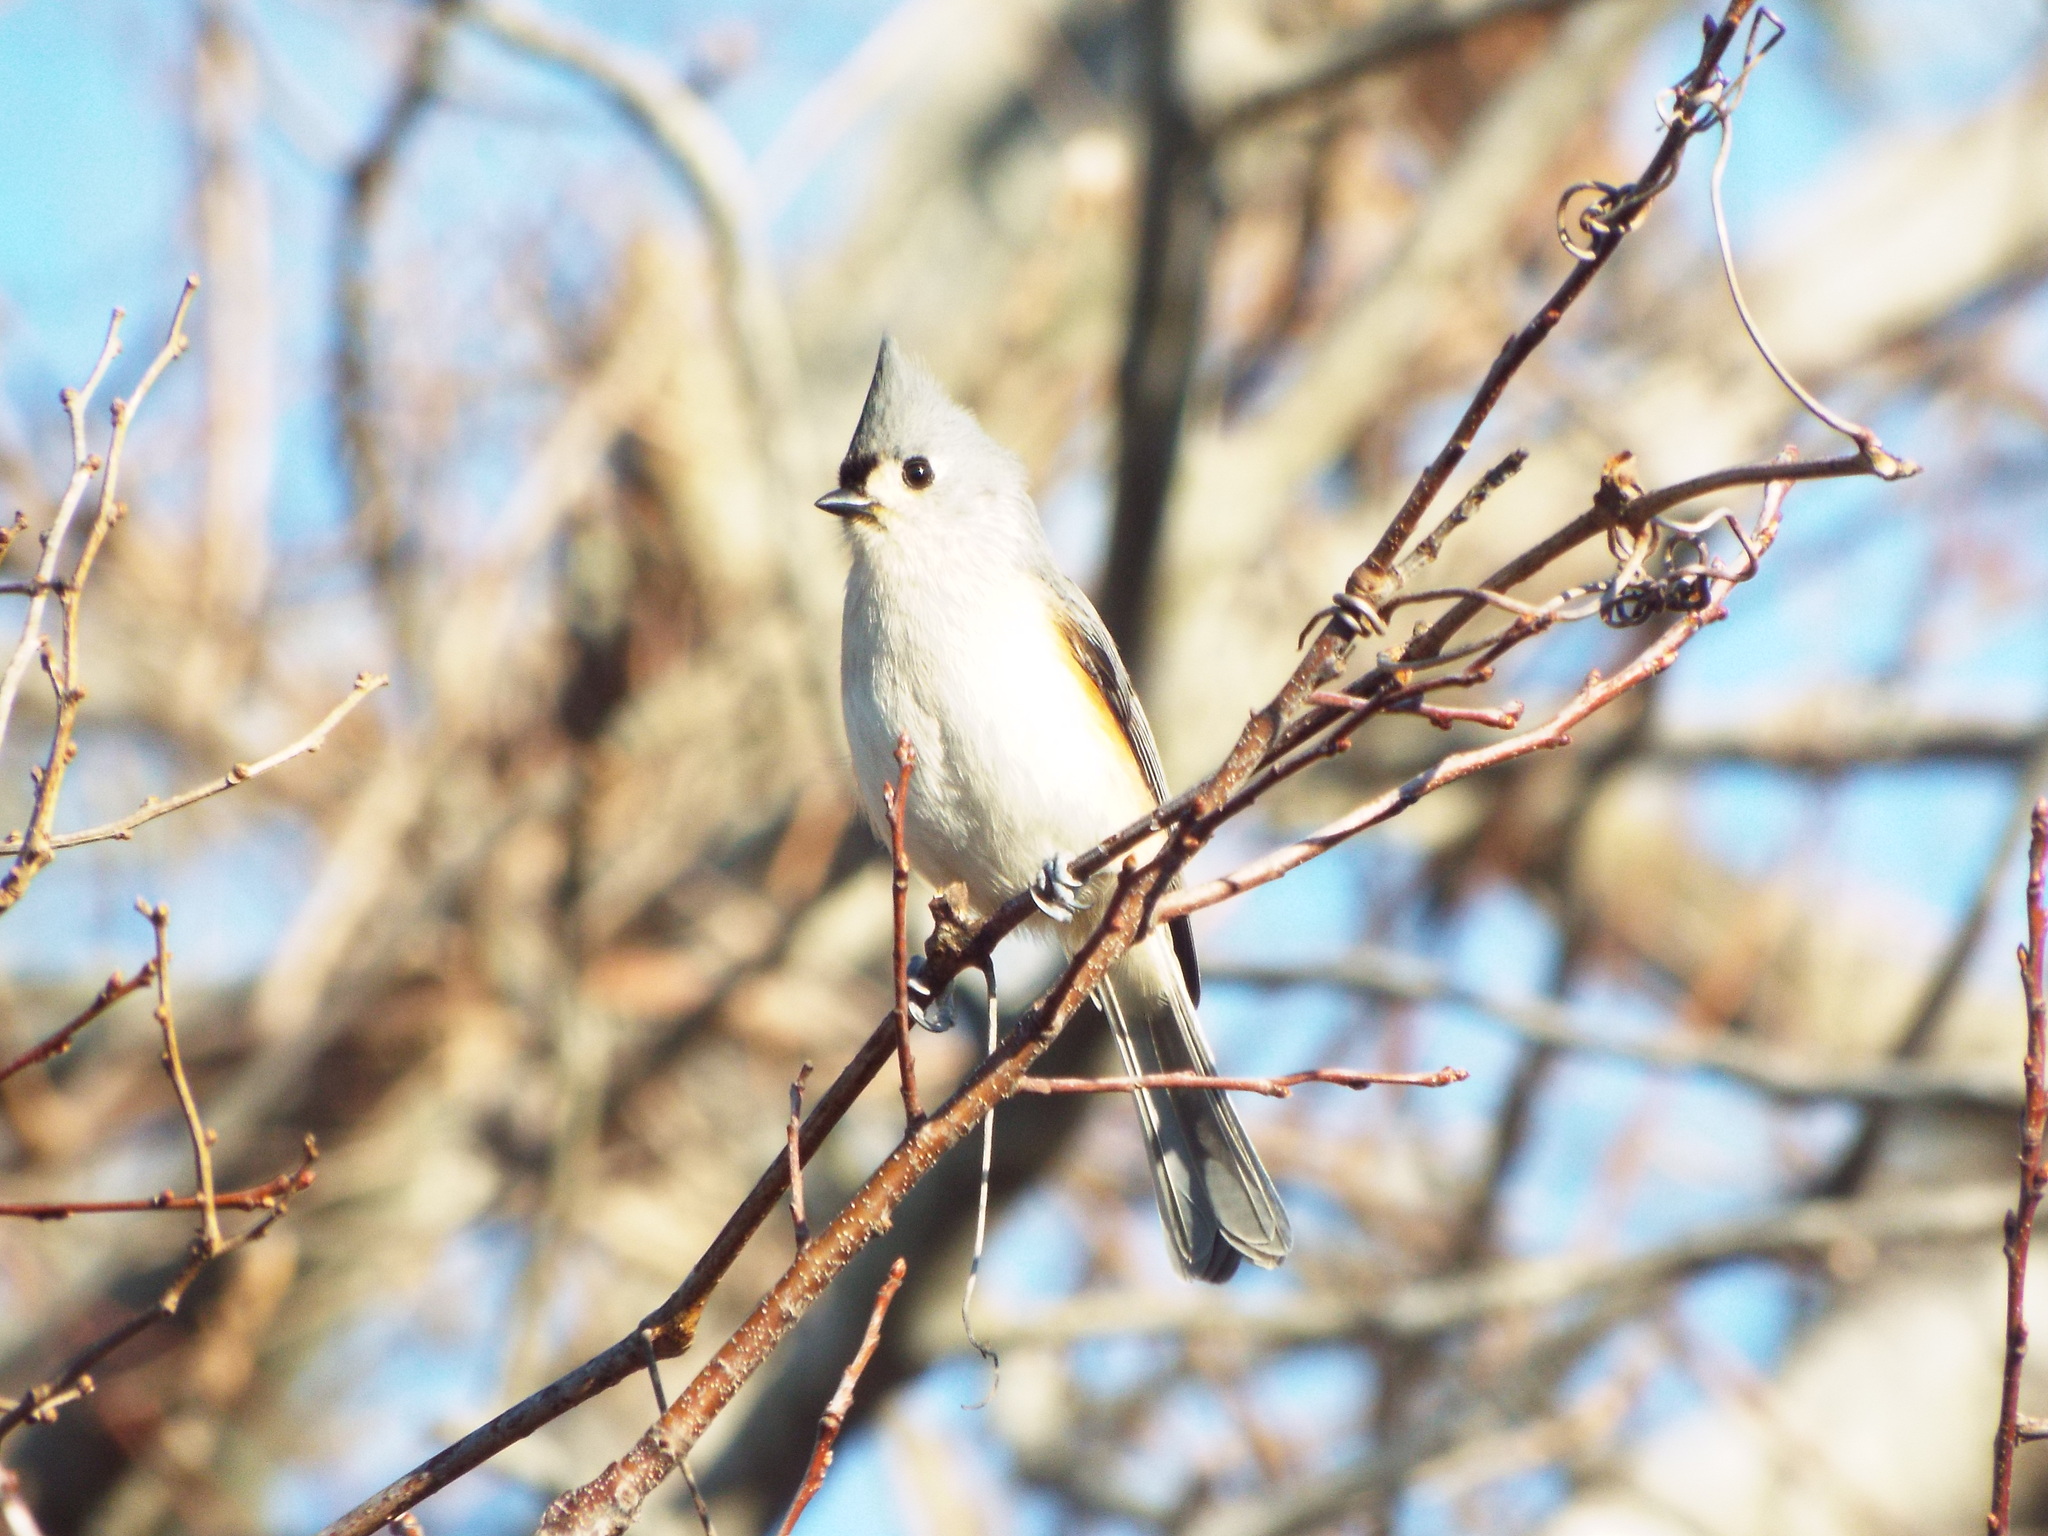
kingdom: Animalia
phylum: Chordata
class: Aves
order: Passeriformes
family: Paridae
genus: Baeolophus
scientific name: Baeolophus bicolor
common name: Tufted titmouse
